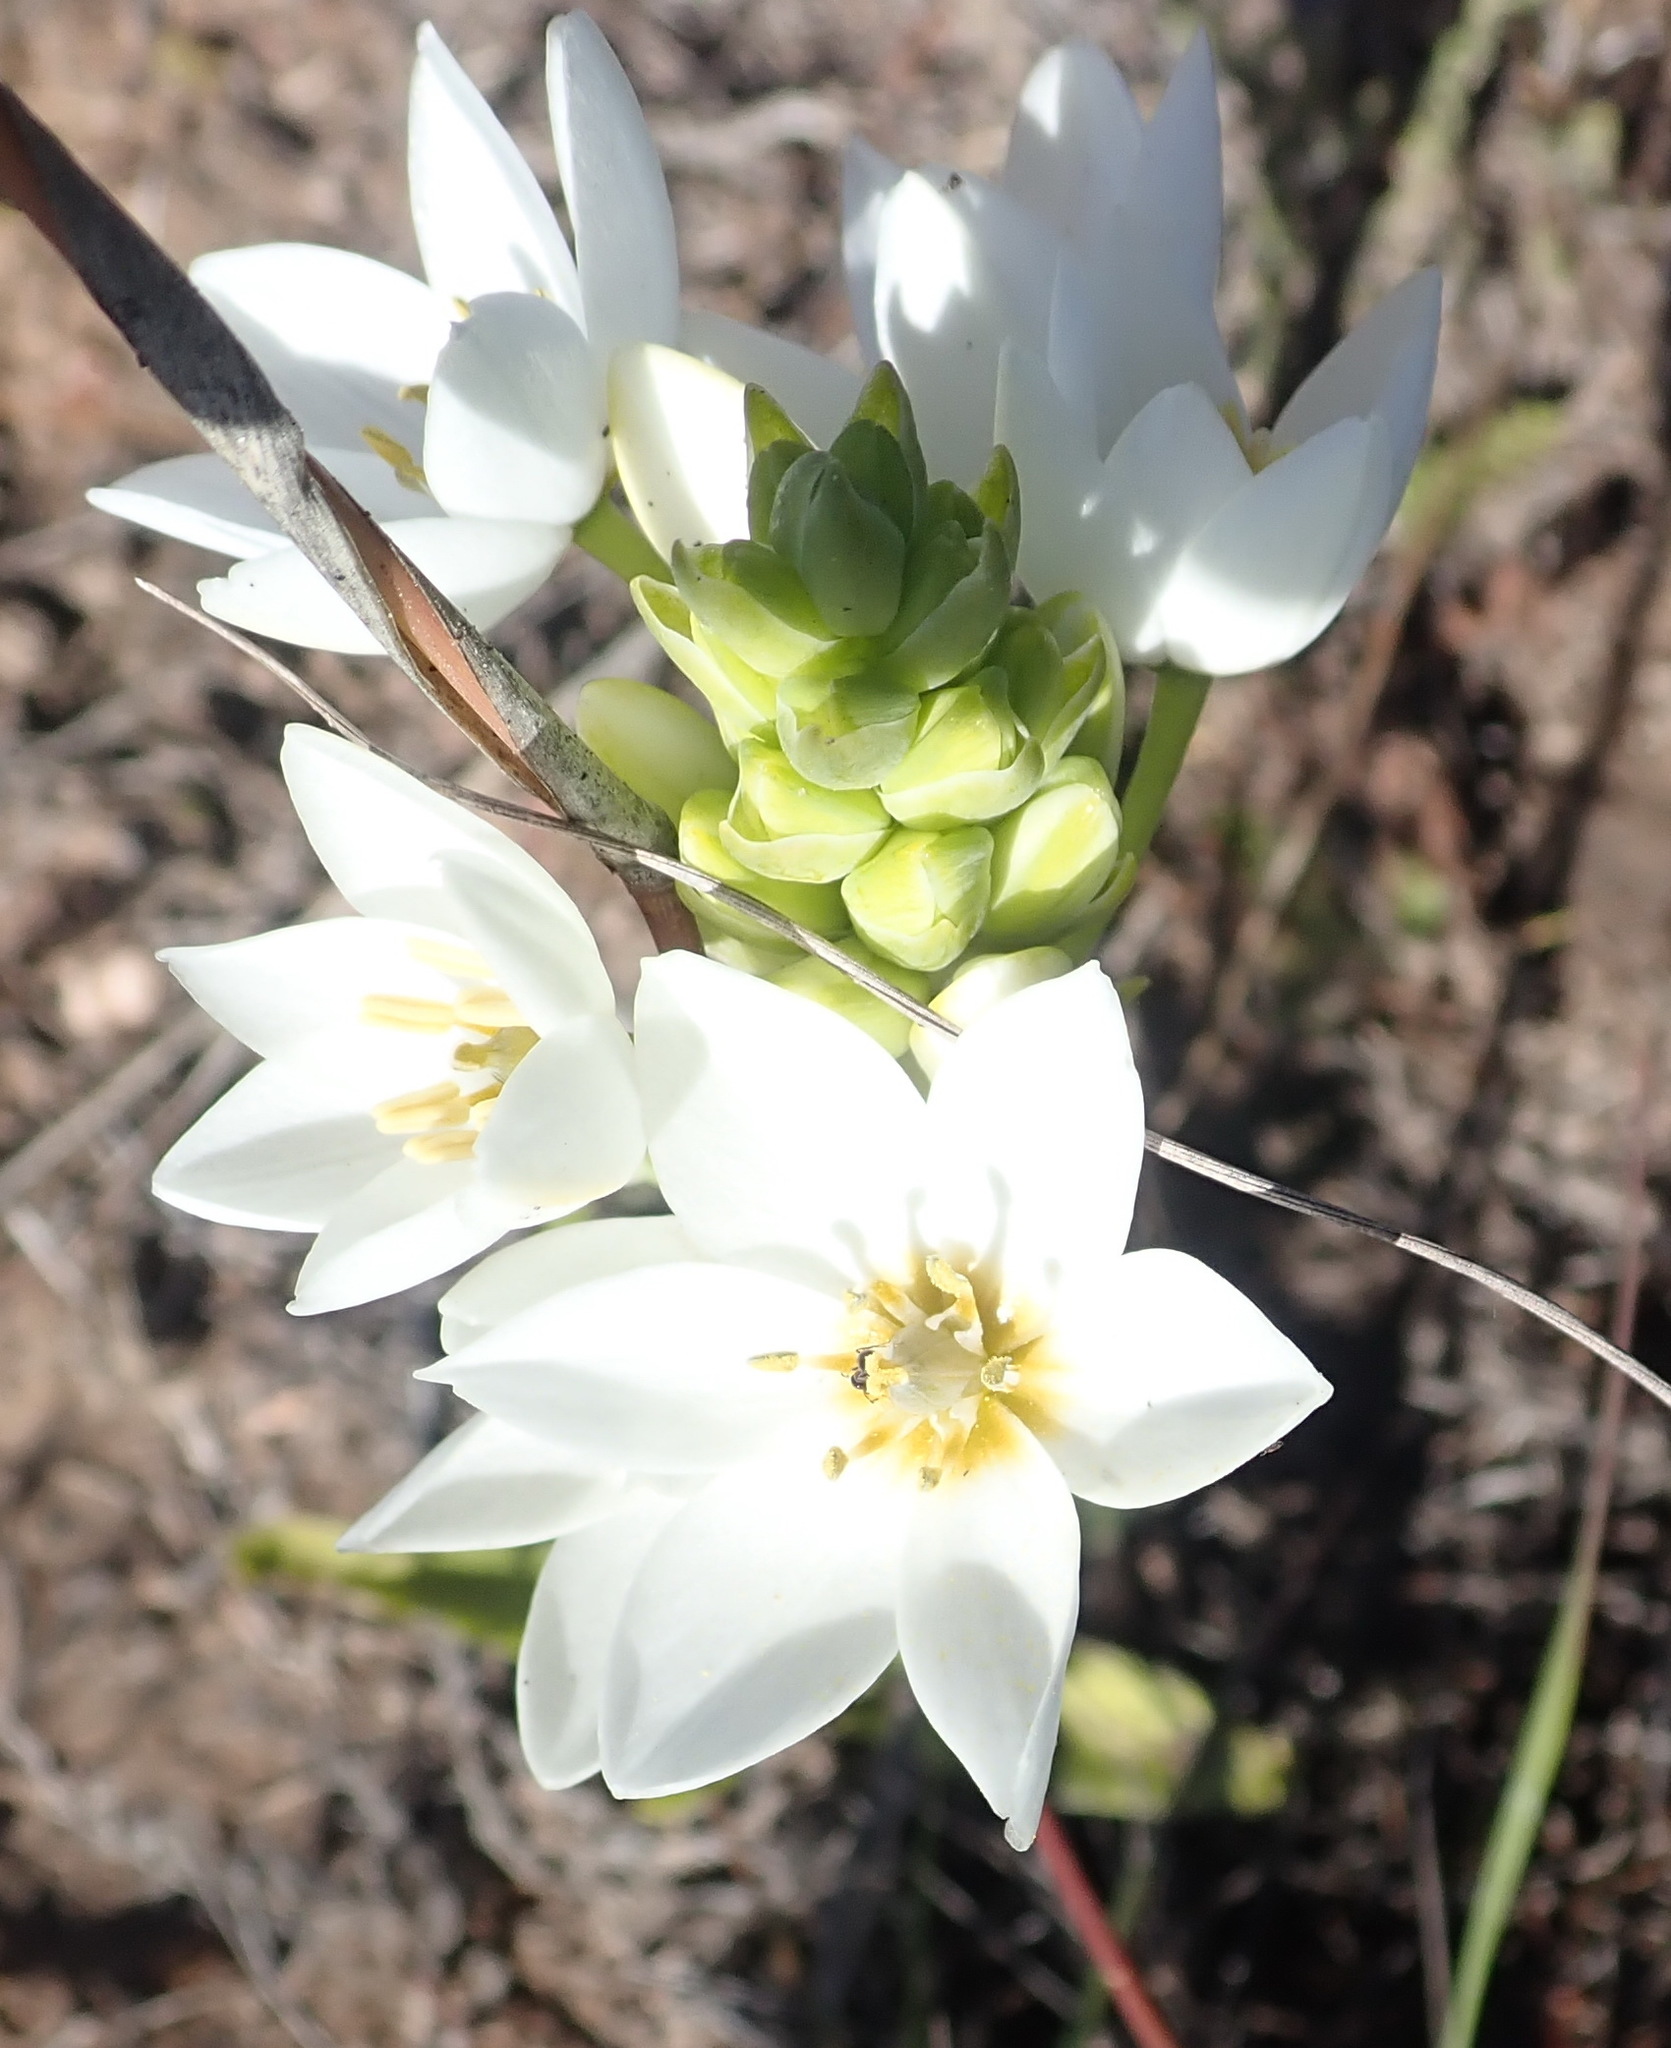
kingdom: Plantae
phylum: Tracheophyta
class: Liliopsida
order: Asparagales
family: Asparagaceae
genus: Ornithogalum
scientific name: Ornithogalum dubium
